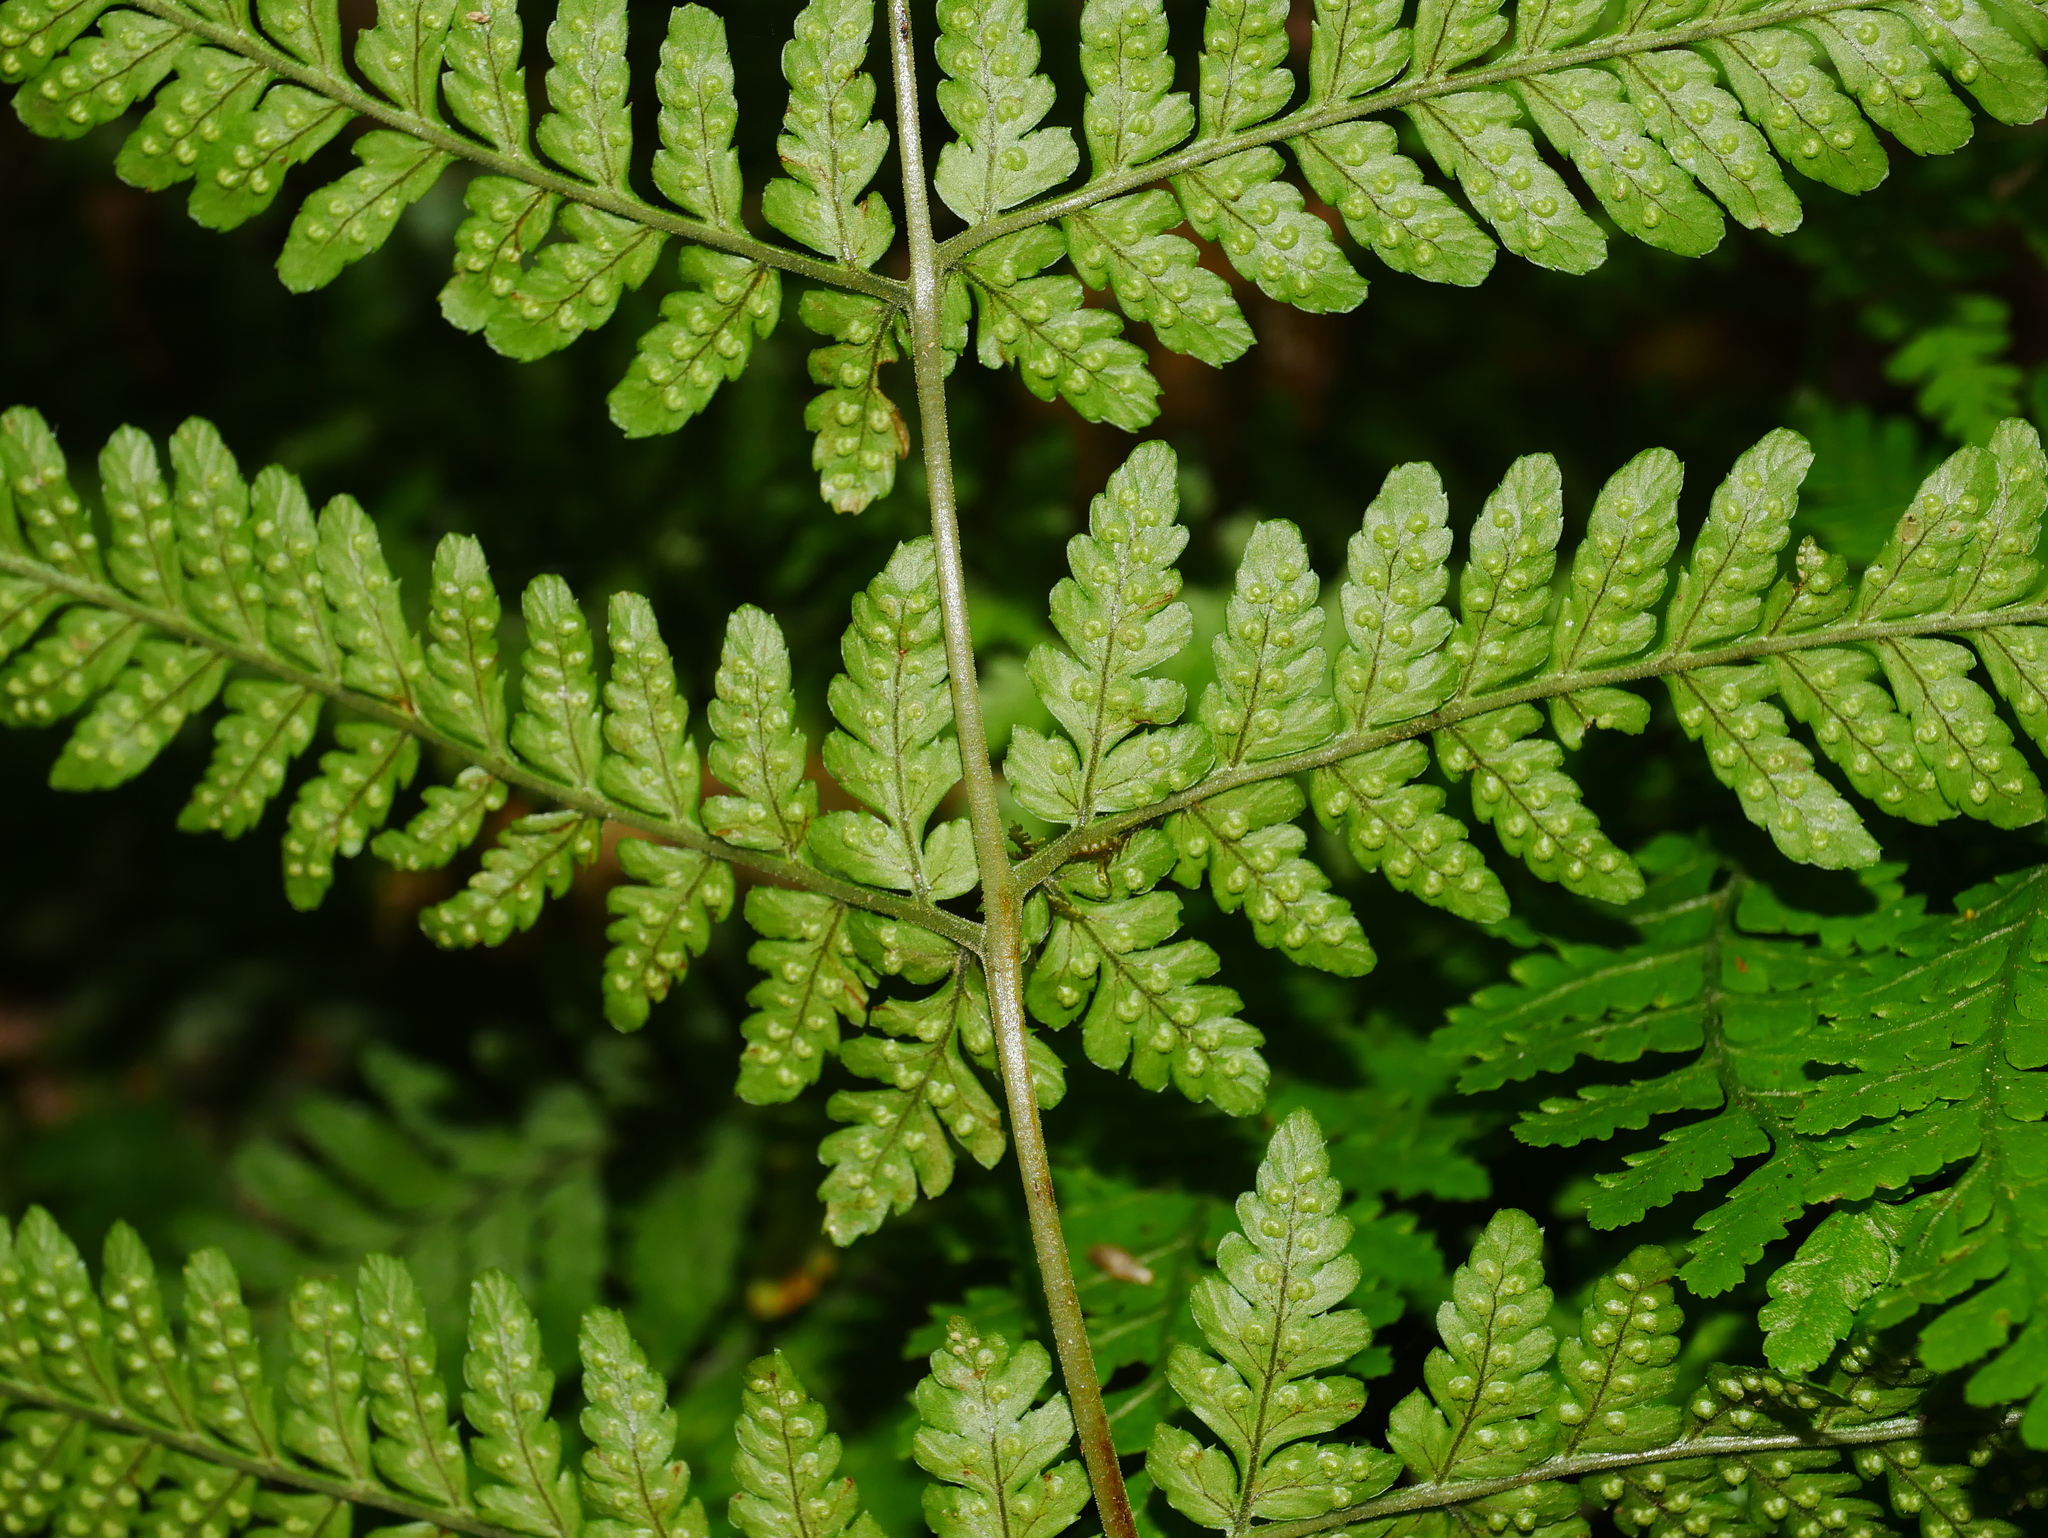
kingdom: Plantae
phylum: Tracheophyta
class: Polypodiopsida
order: Polypodiales
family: Dryopteridaceae
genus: Dryopteris
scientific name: Dryopteris melanocarpa
